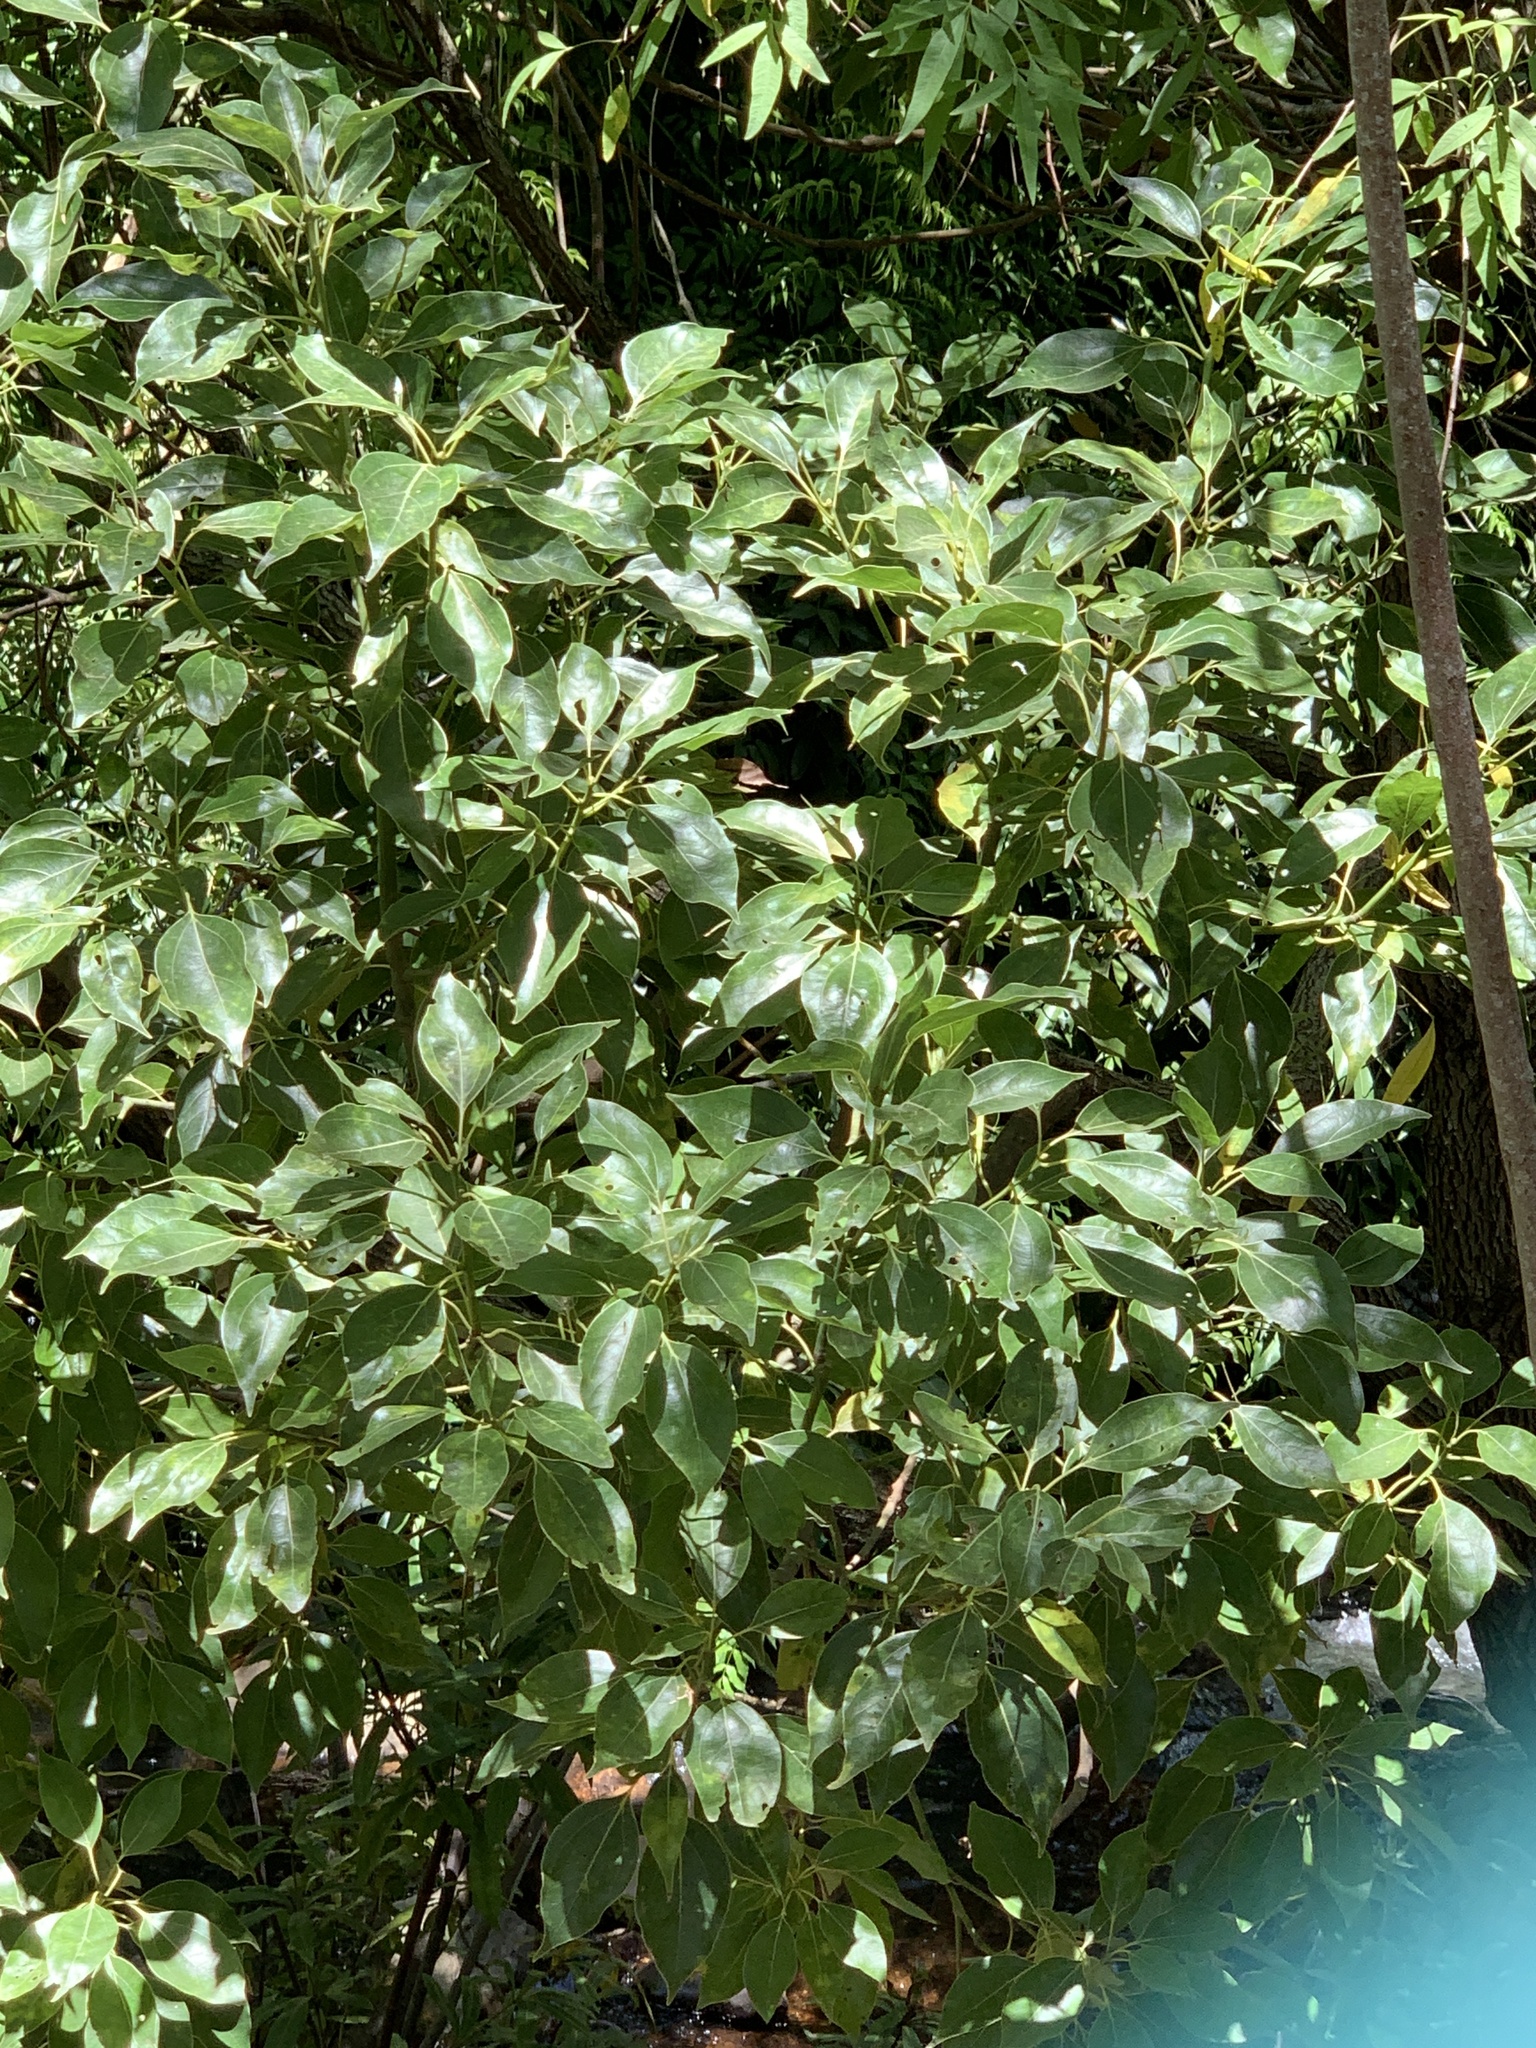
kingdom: Plantae
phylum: Tracheophyta
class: Magnoliopsida
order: Laurales
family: Lauraceae
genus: Cinnamomum
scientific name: Cinnamomum camphora
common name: Camphortree
